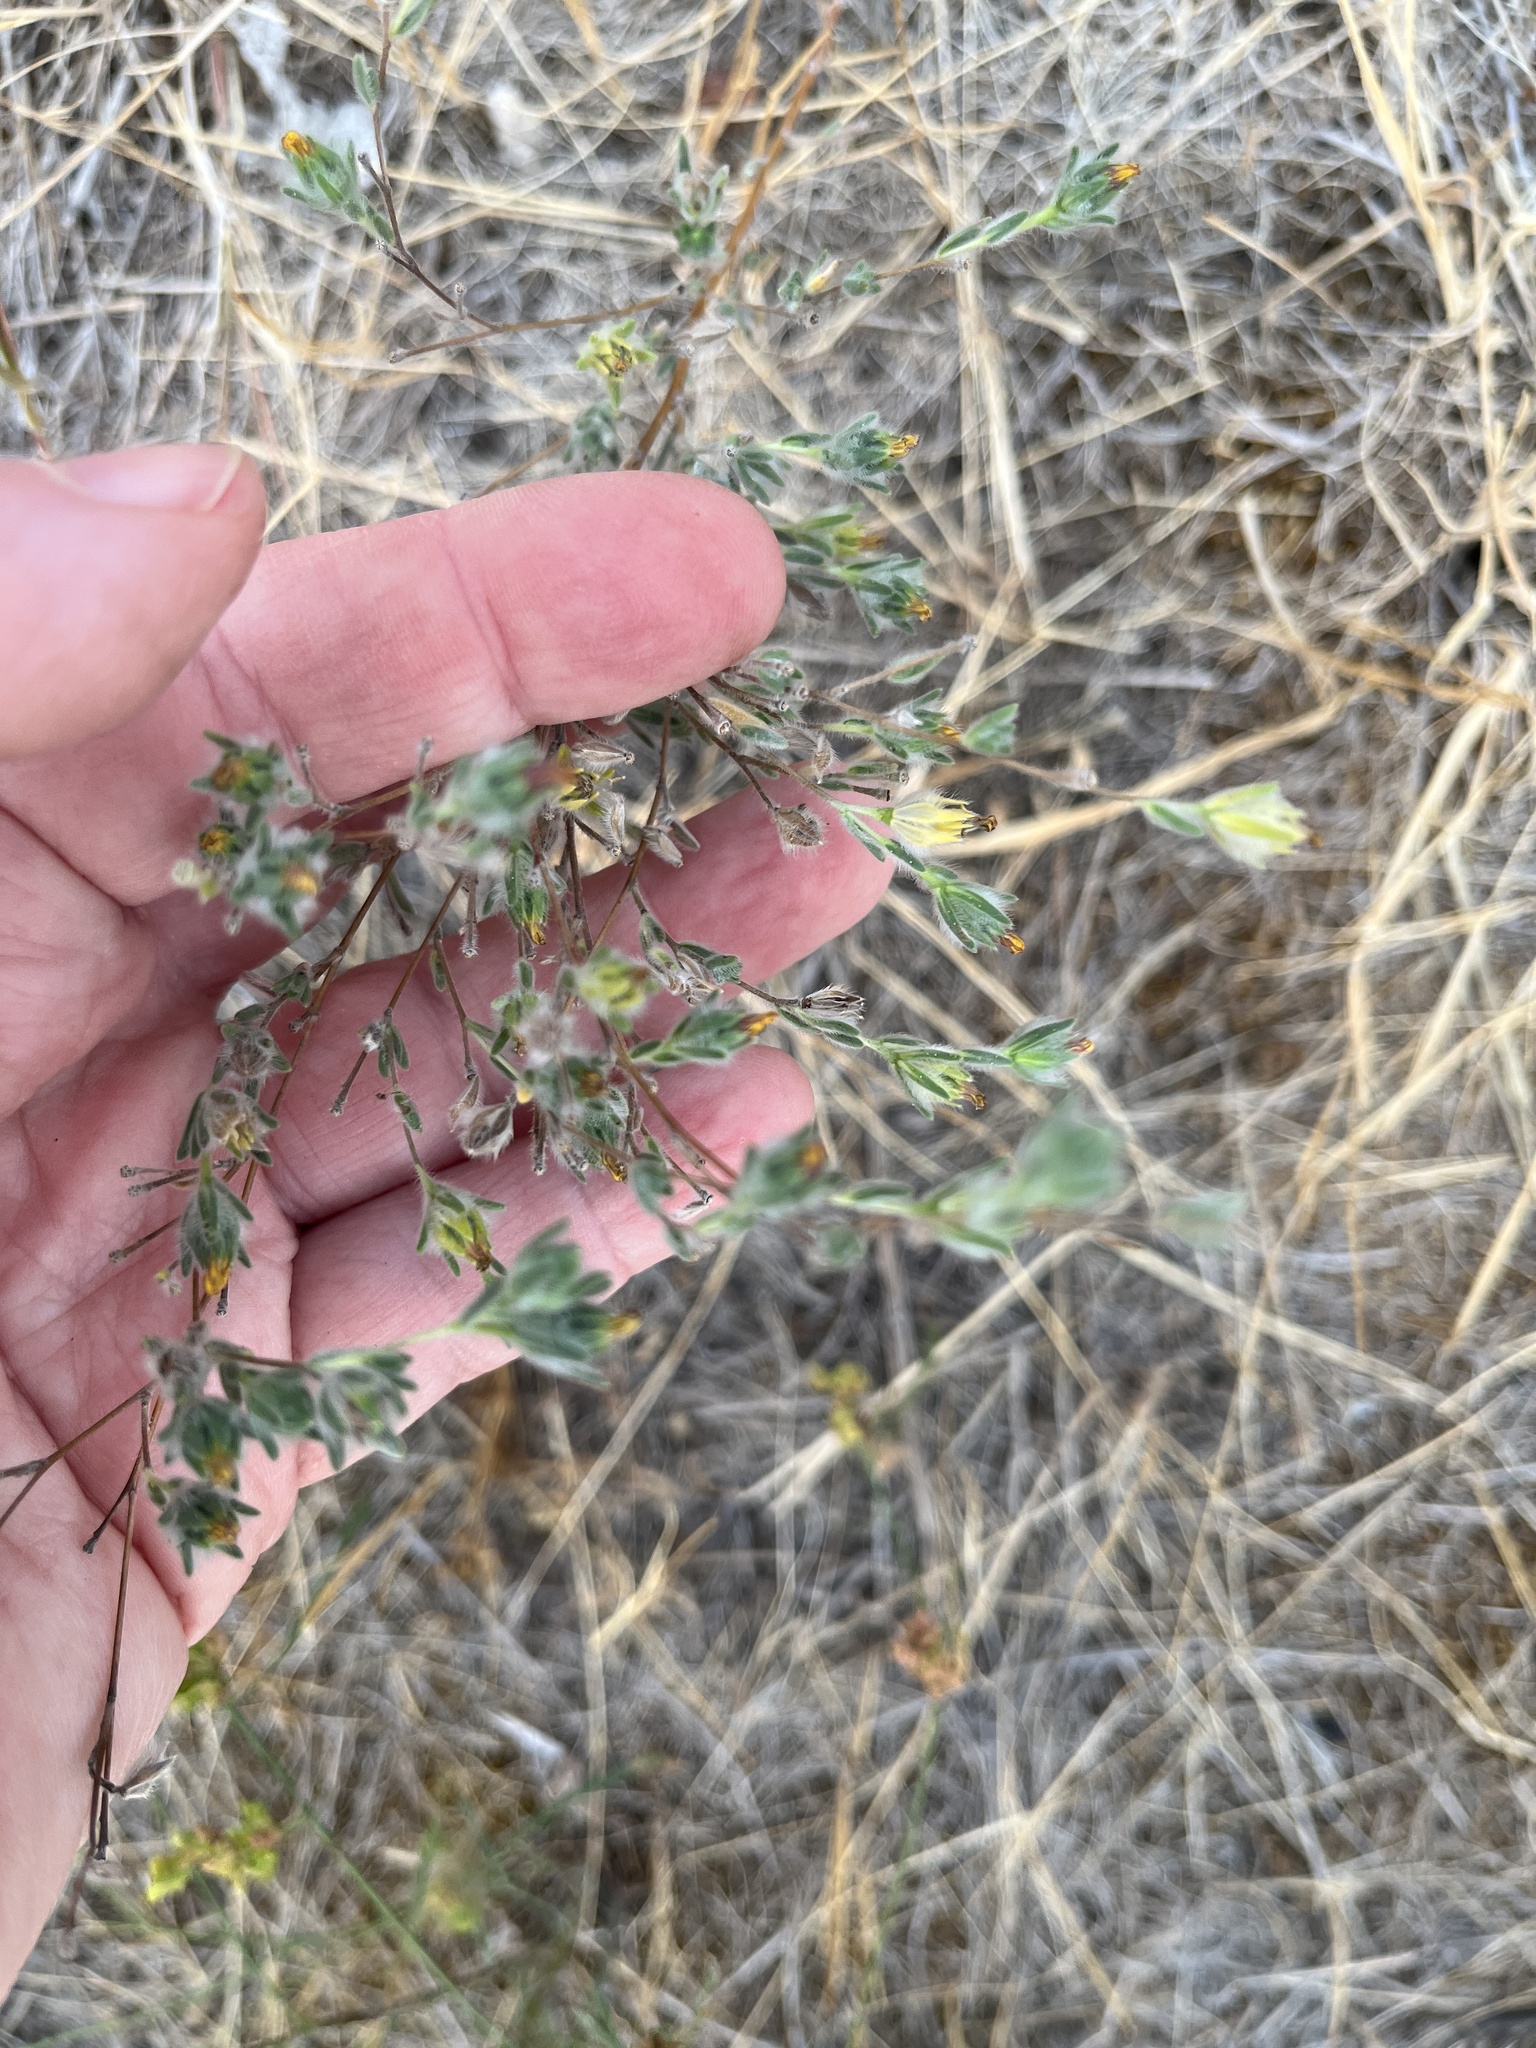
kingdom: Plantae
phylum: Tracheophyta
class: Magnoliopsida
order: Asterales
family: Asteraceae
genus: Lagophylla
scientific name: Lagophylla ramosissima
